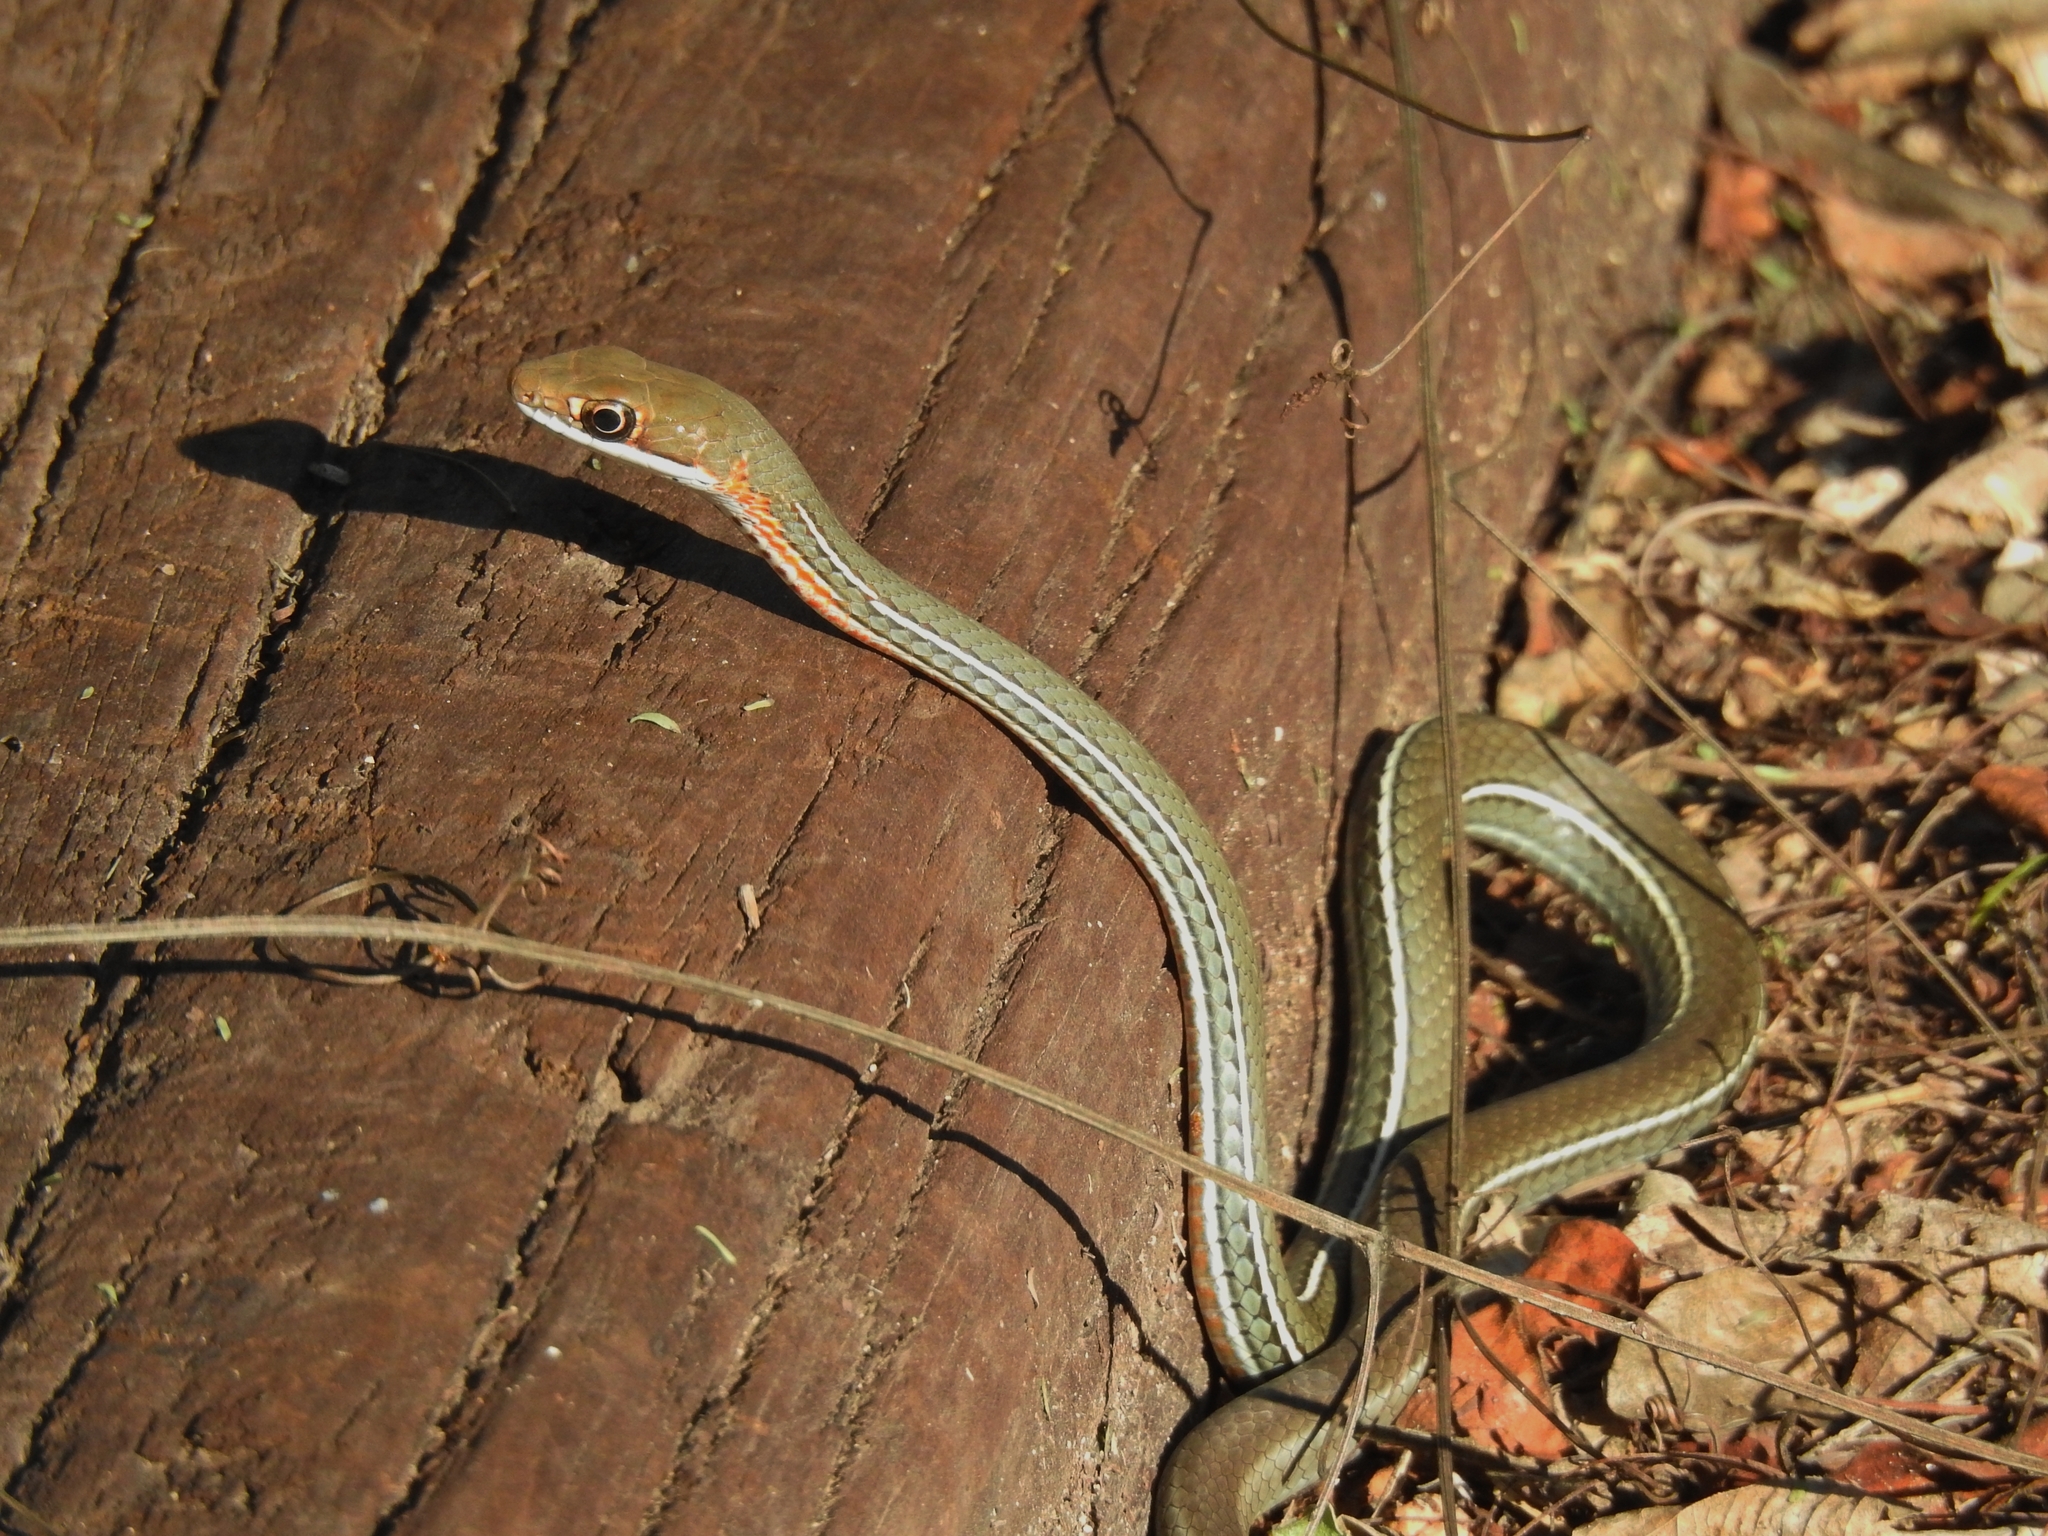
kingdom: Animalia
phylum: Chordata
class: Squamata
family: Colubridae
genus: Masticophis
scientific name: Masticophis schotti
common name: Schott's whipsnake
